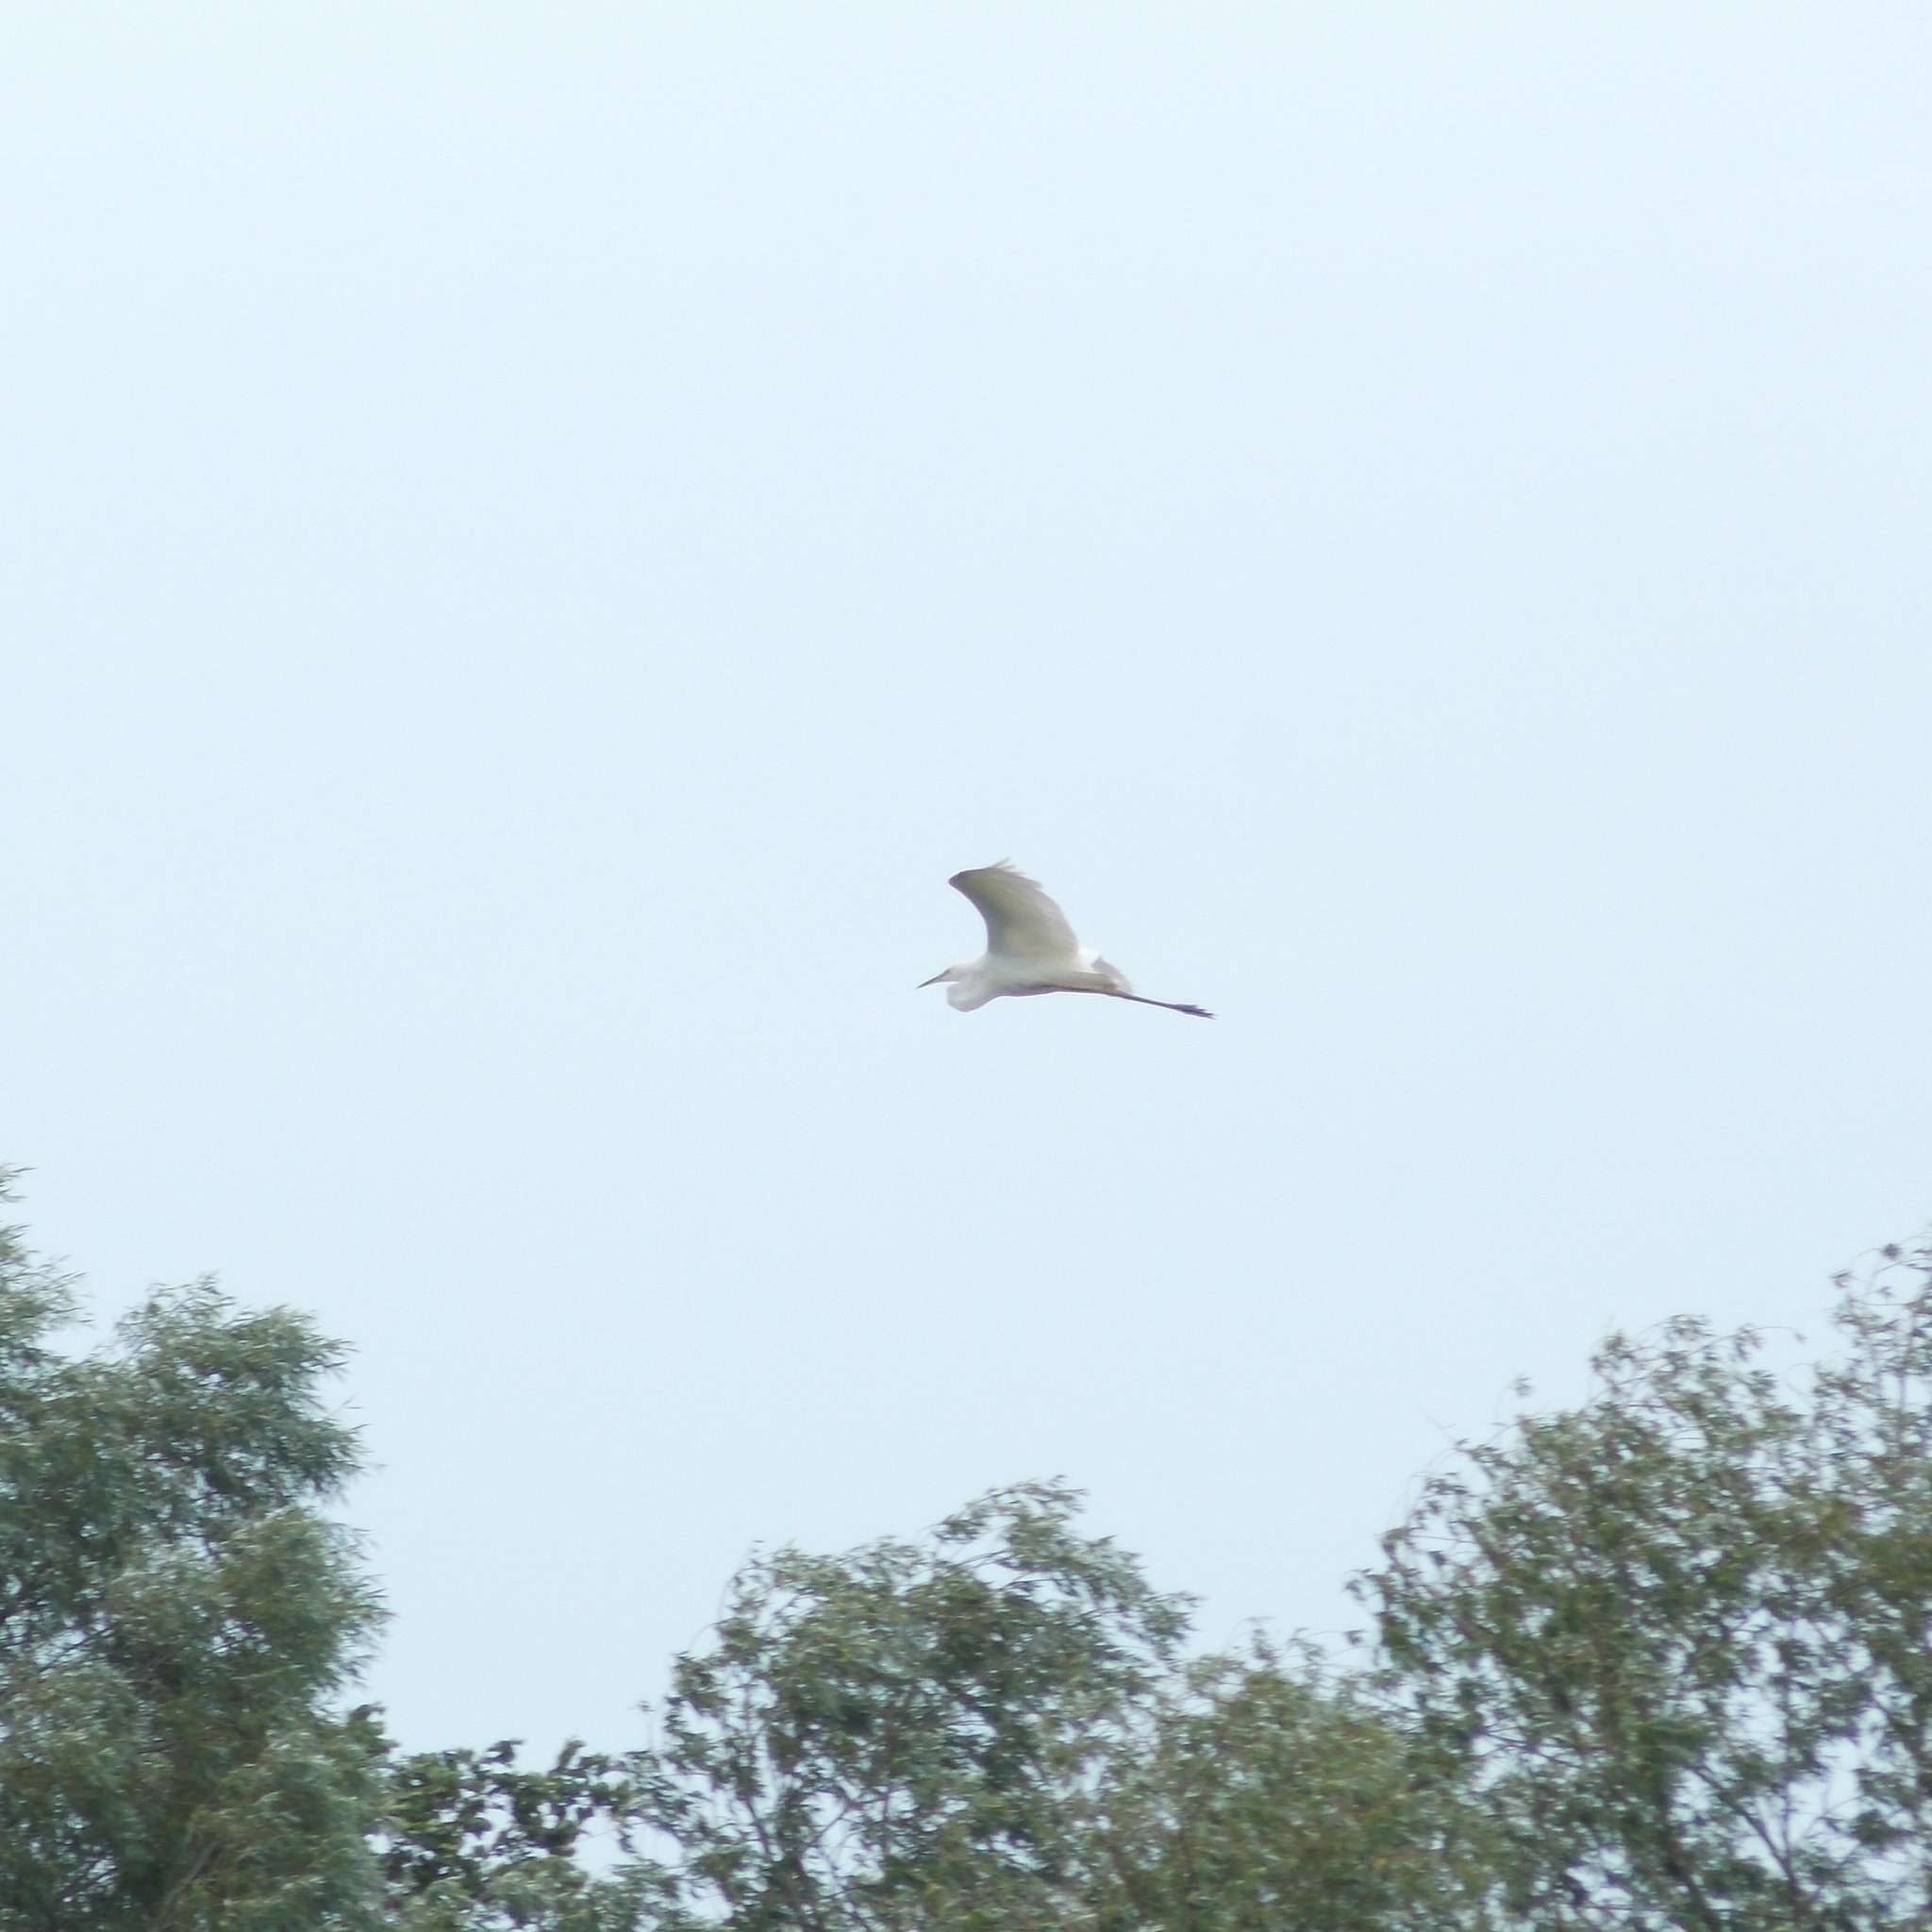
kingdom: Animalia
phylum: Chordata
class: Aves
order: Pelecaniformes
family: Ardeidae
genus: Ardea
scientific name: Ardea alba
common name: Great egret
